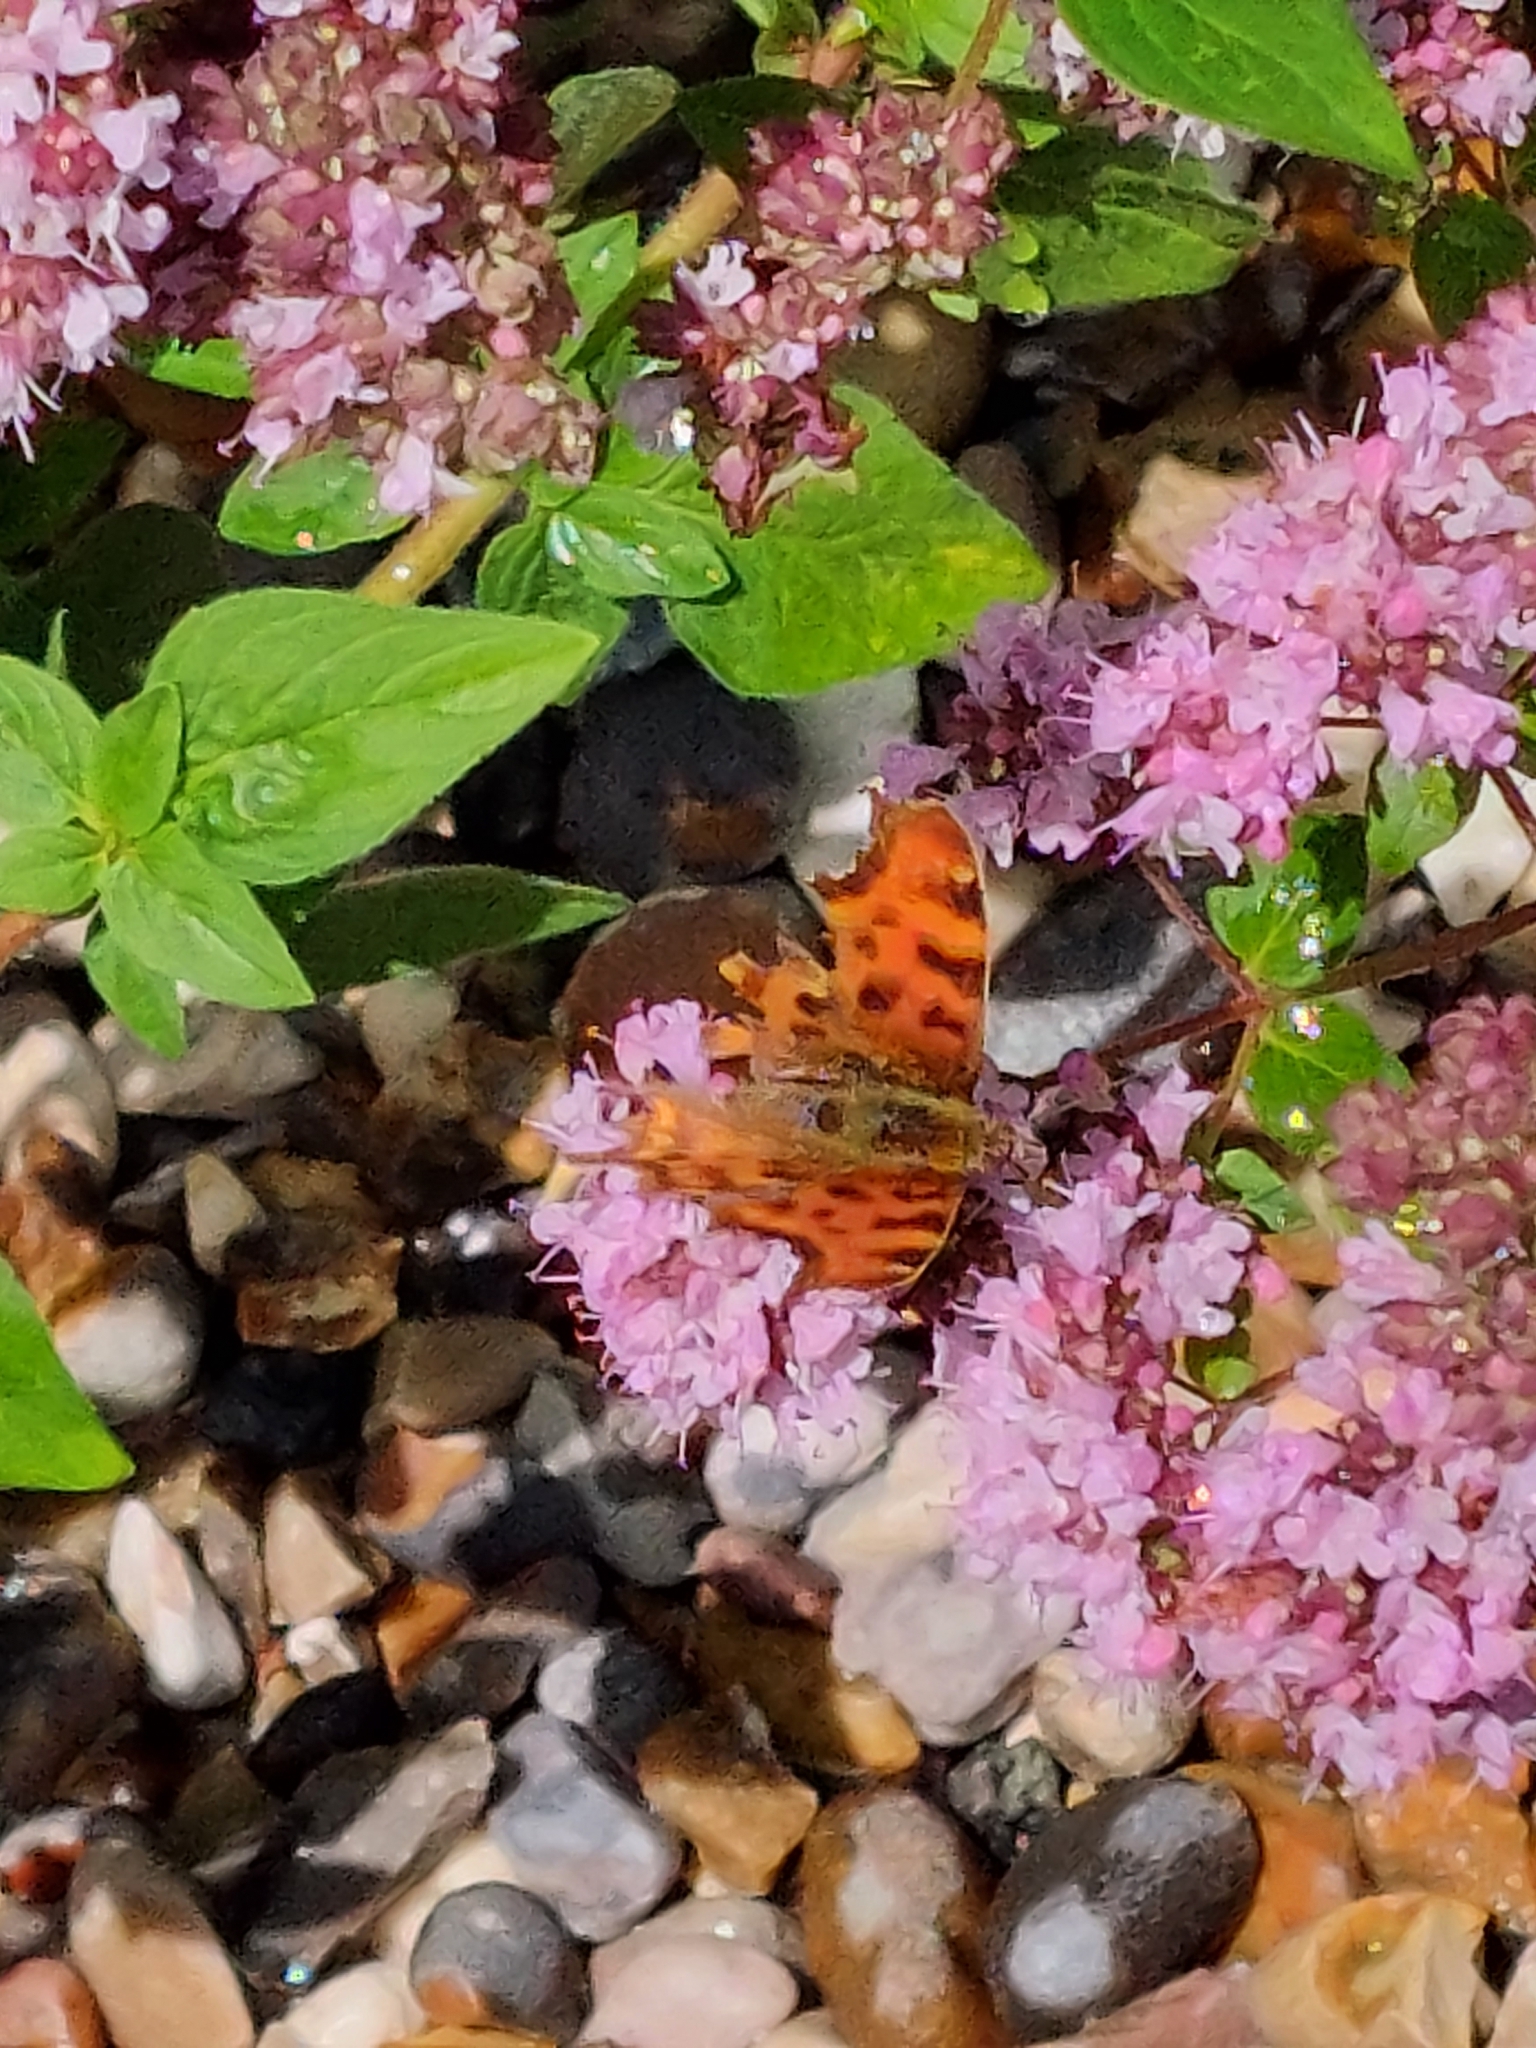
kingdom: Animalia
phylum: Arthropoda
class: Insecta
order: Lepidoptera
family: Nymphalidae
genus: Polygonia
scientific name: Polygonia c-album
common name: Comma
